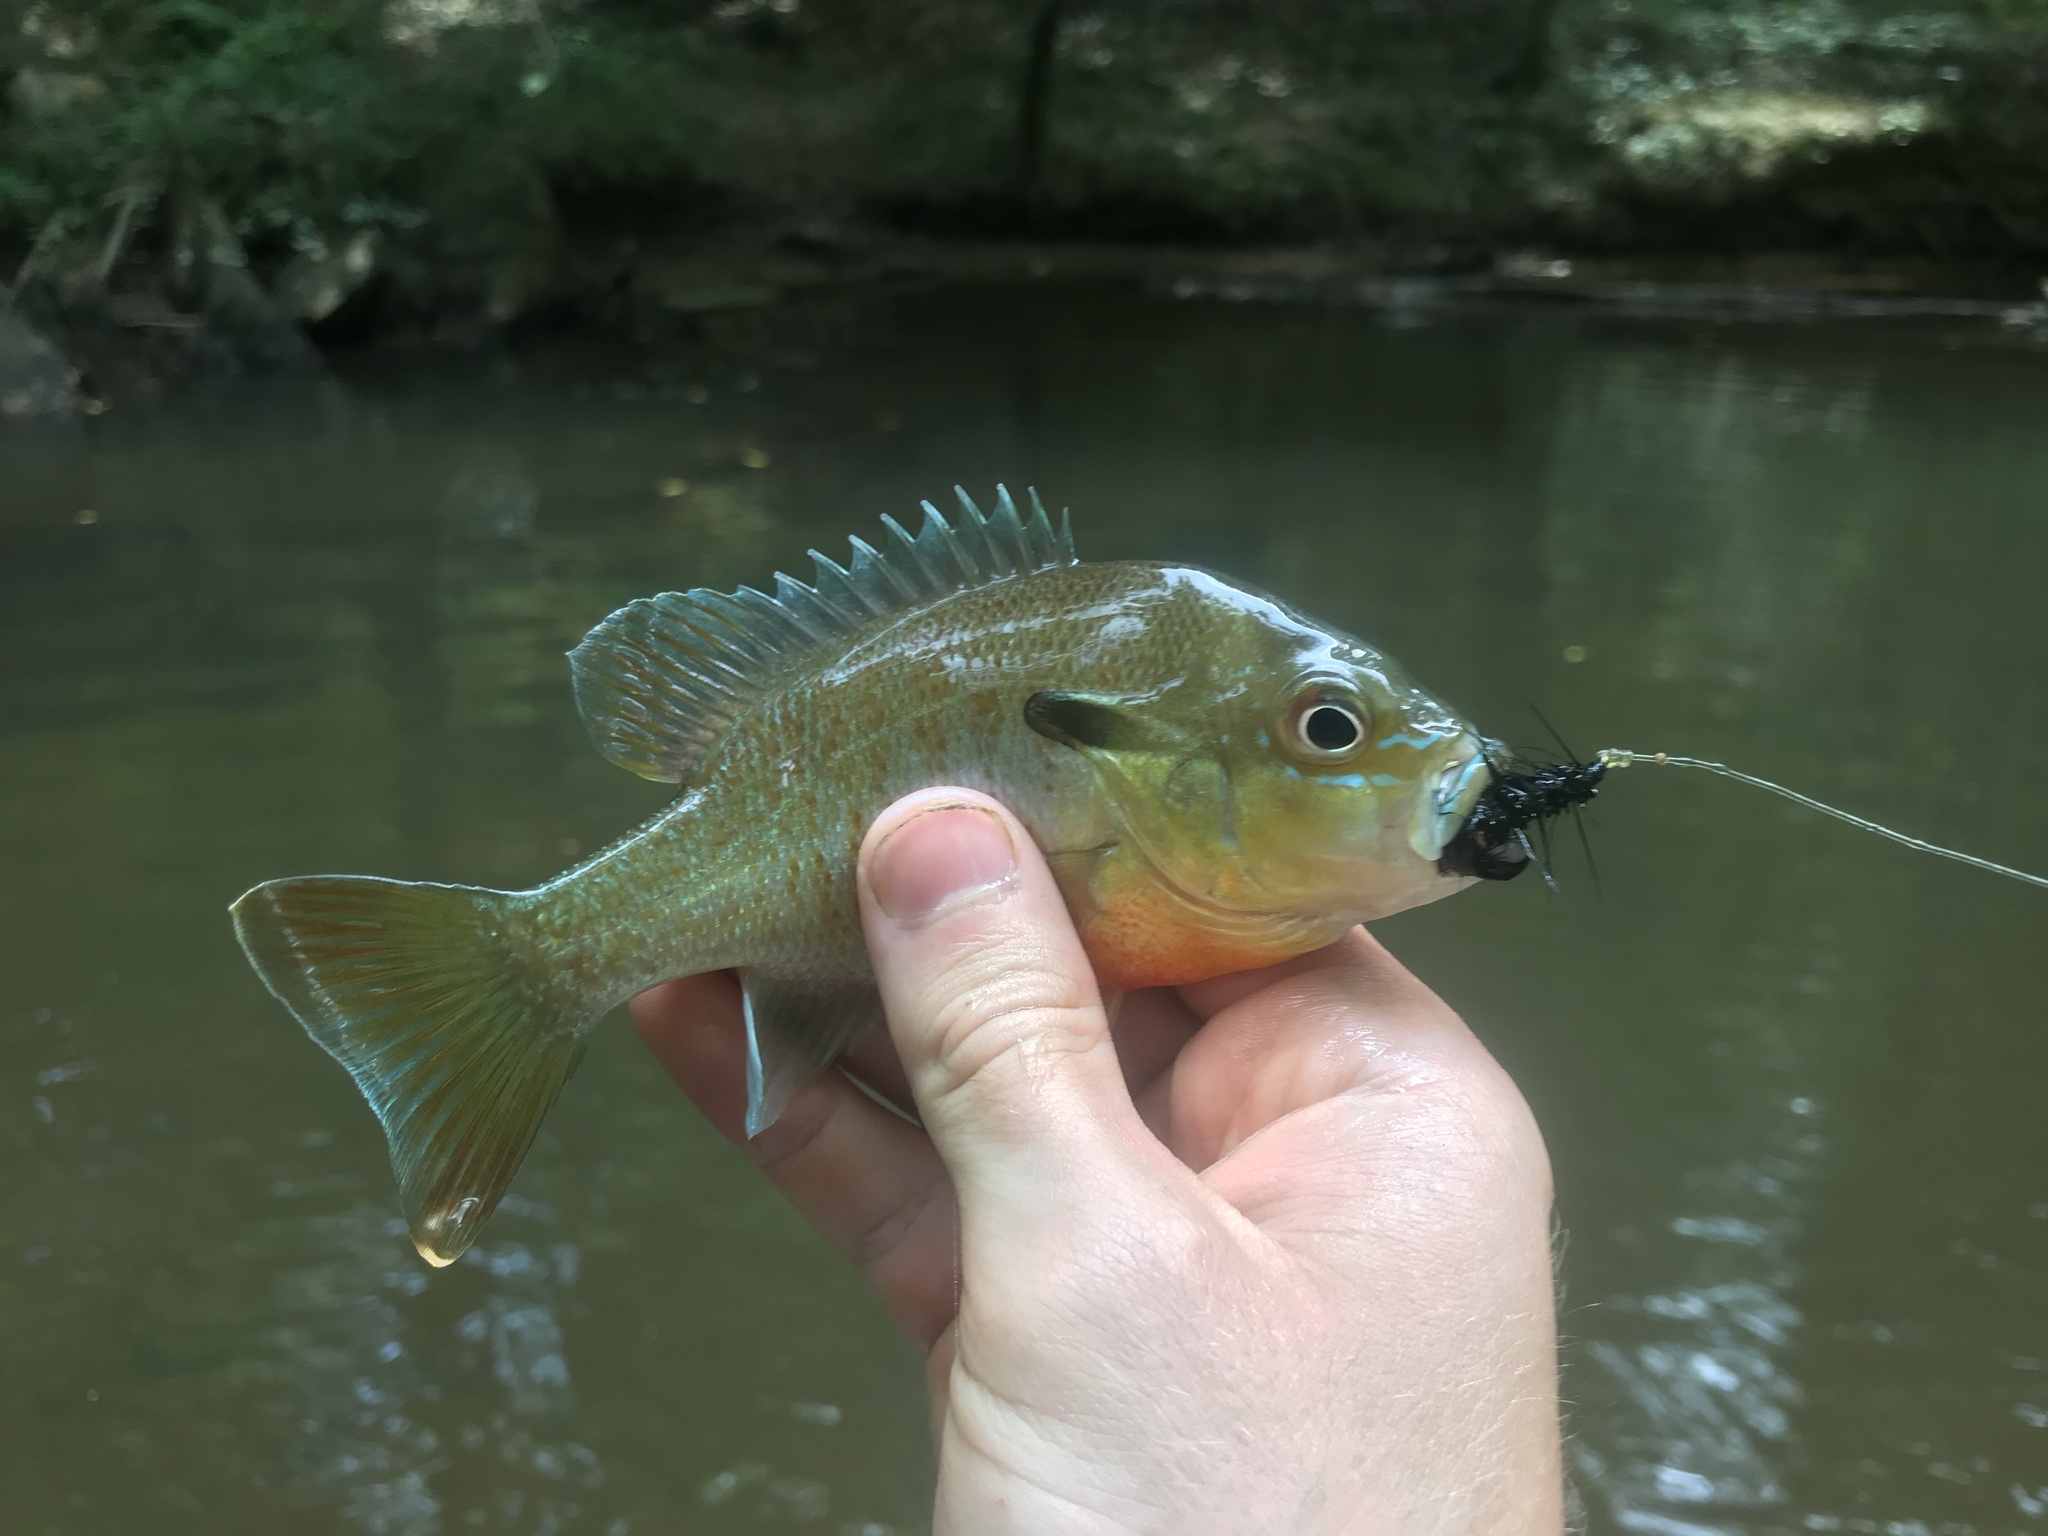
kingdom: Animalia
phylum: Chordata
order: Perciformes
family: Centrarchidae
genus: Lepomis
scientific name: Lepomis auritus
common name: Redbreast sunfish
